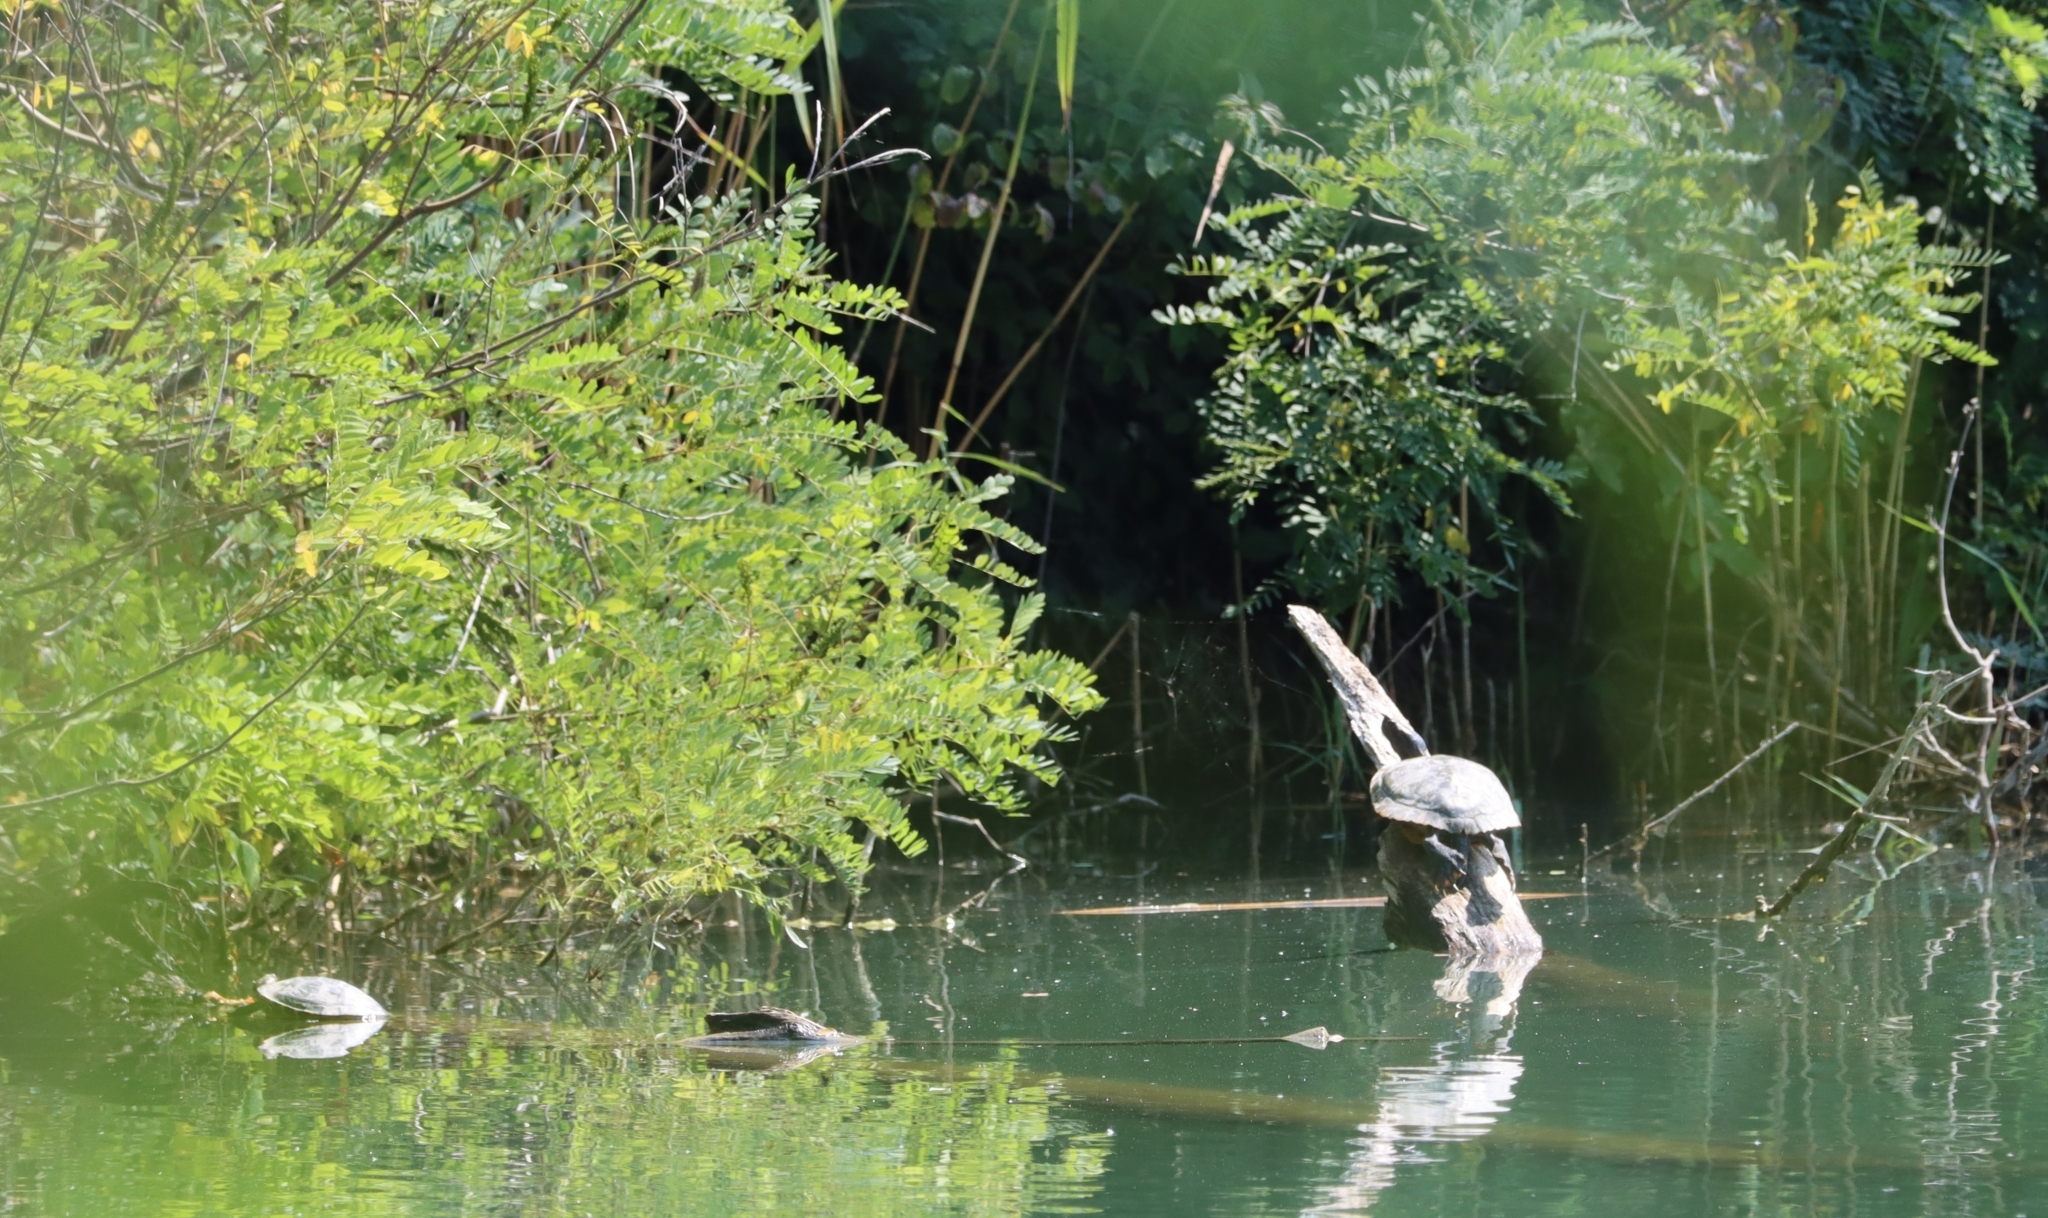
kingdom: Animalia
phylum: Chordata
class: Testudines
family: Emydidae
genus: Trachemys
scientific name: Trachemys scripta
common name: Slider
